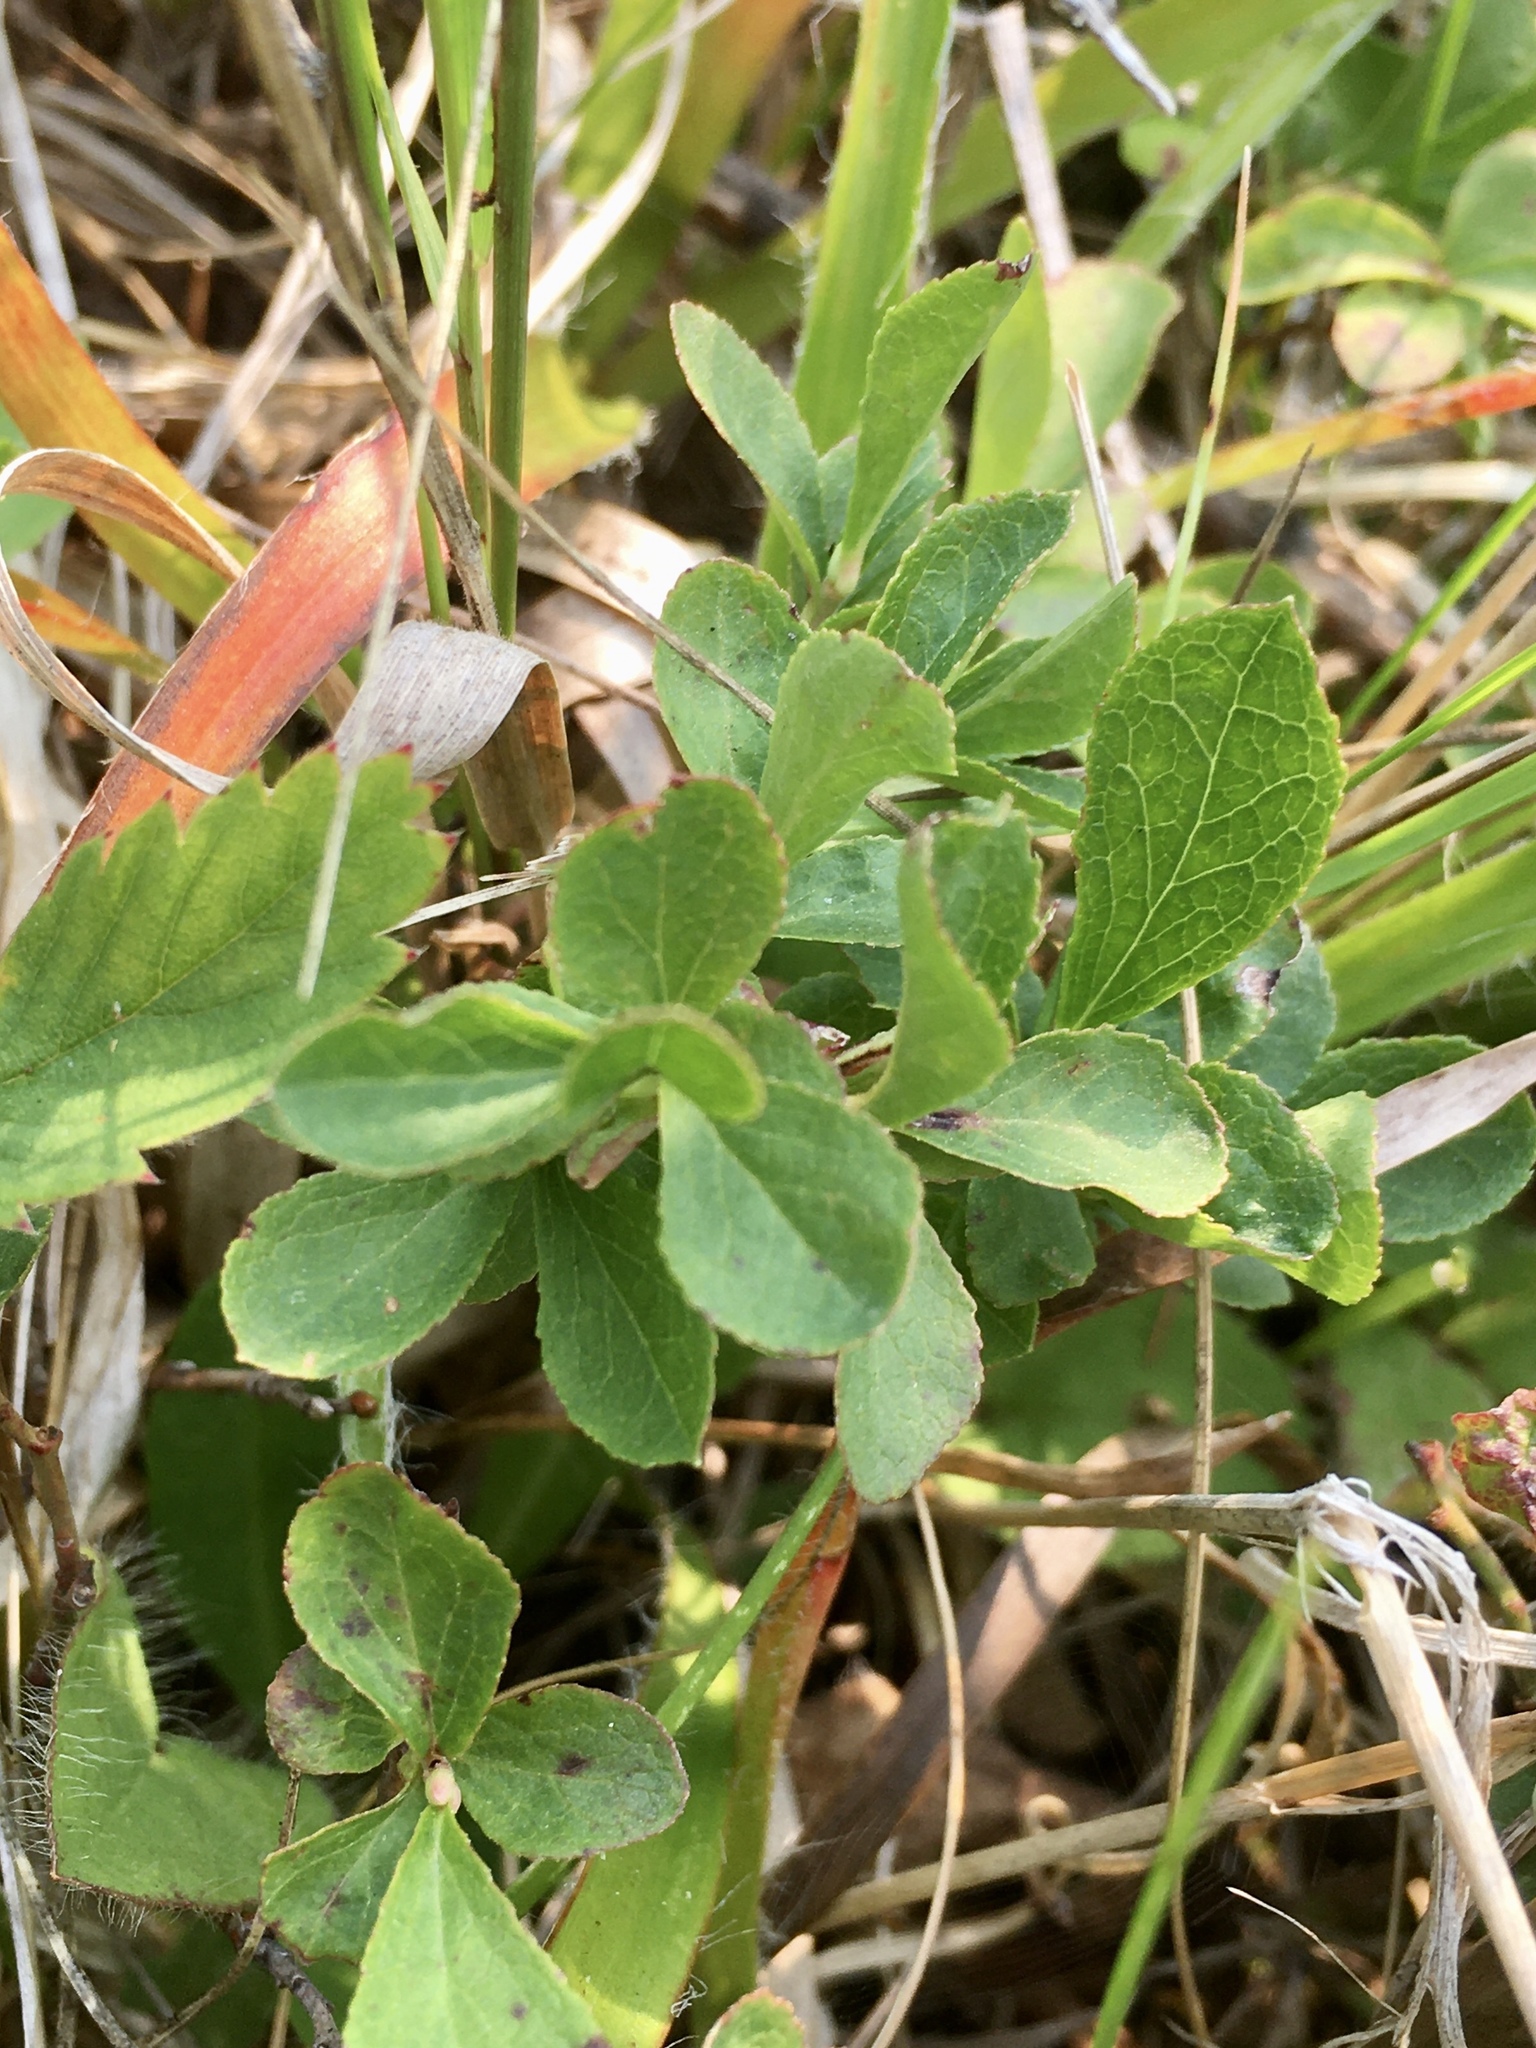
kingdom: Plantae
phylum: Tracheophyta
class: Magnoliopsida
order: Ericales
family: Ericaceae
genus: Vaccinium
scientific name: Vaccinium cespitosum
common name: Dwarf bilberry
